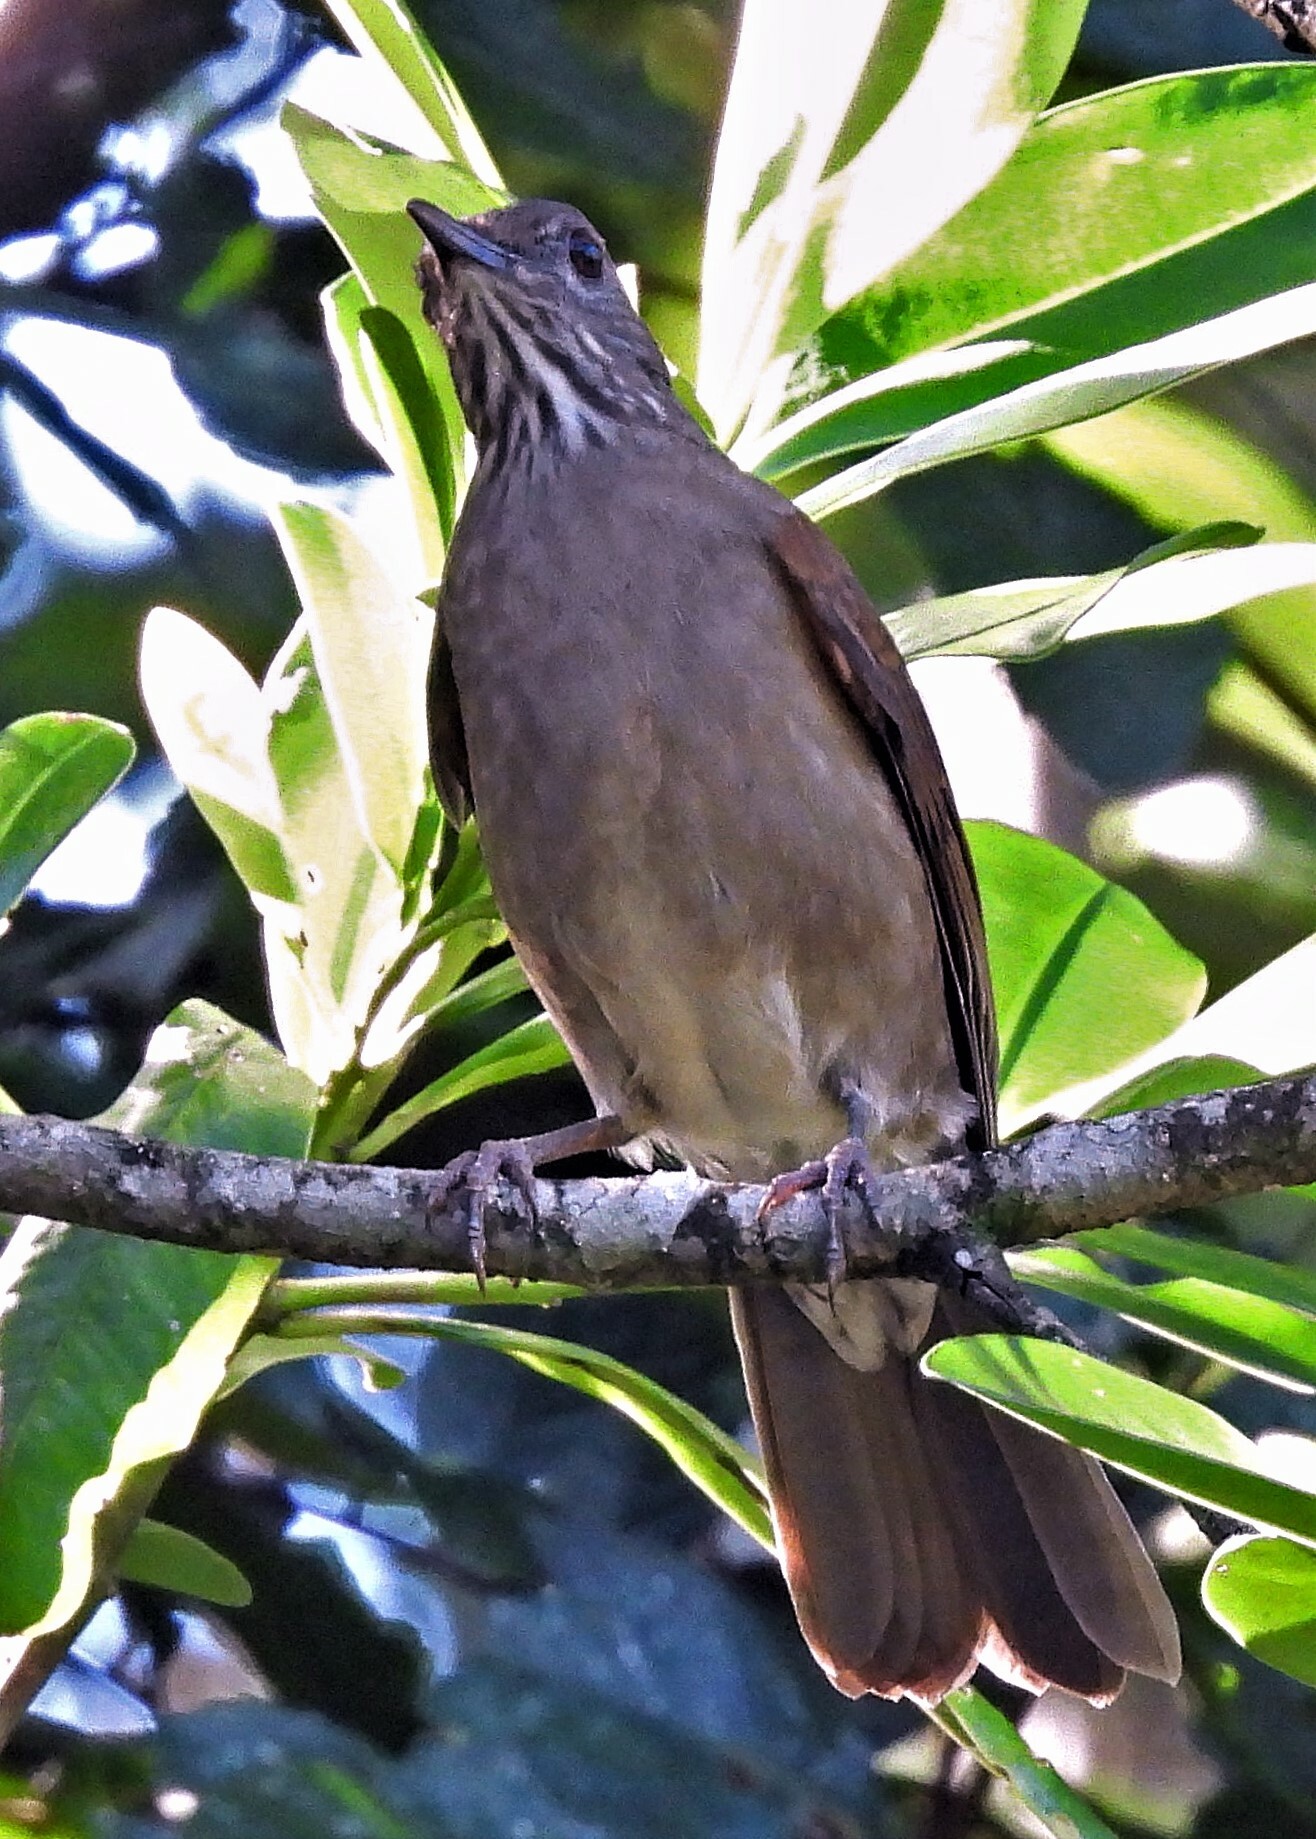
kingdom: Animalia
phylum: Chordata
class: Aves
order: Passeriformes
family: Turdidae
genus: Turdus
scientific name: Turdus leucomelas
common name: Pale-breasted thrush
